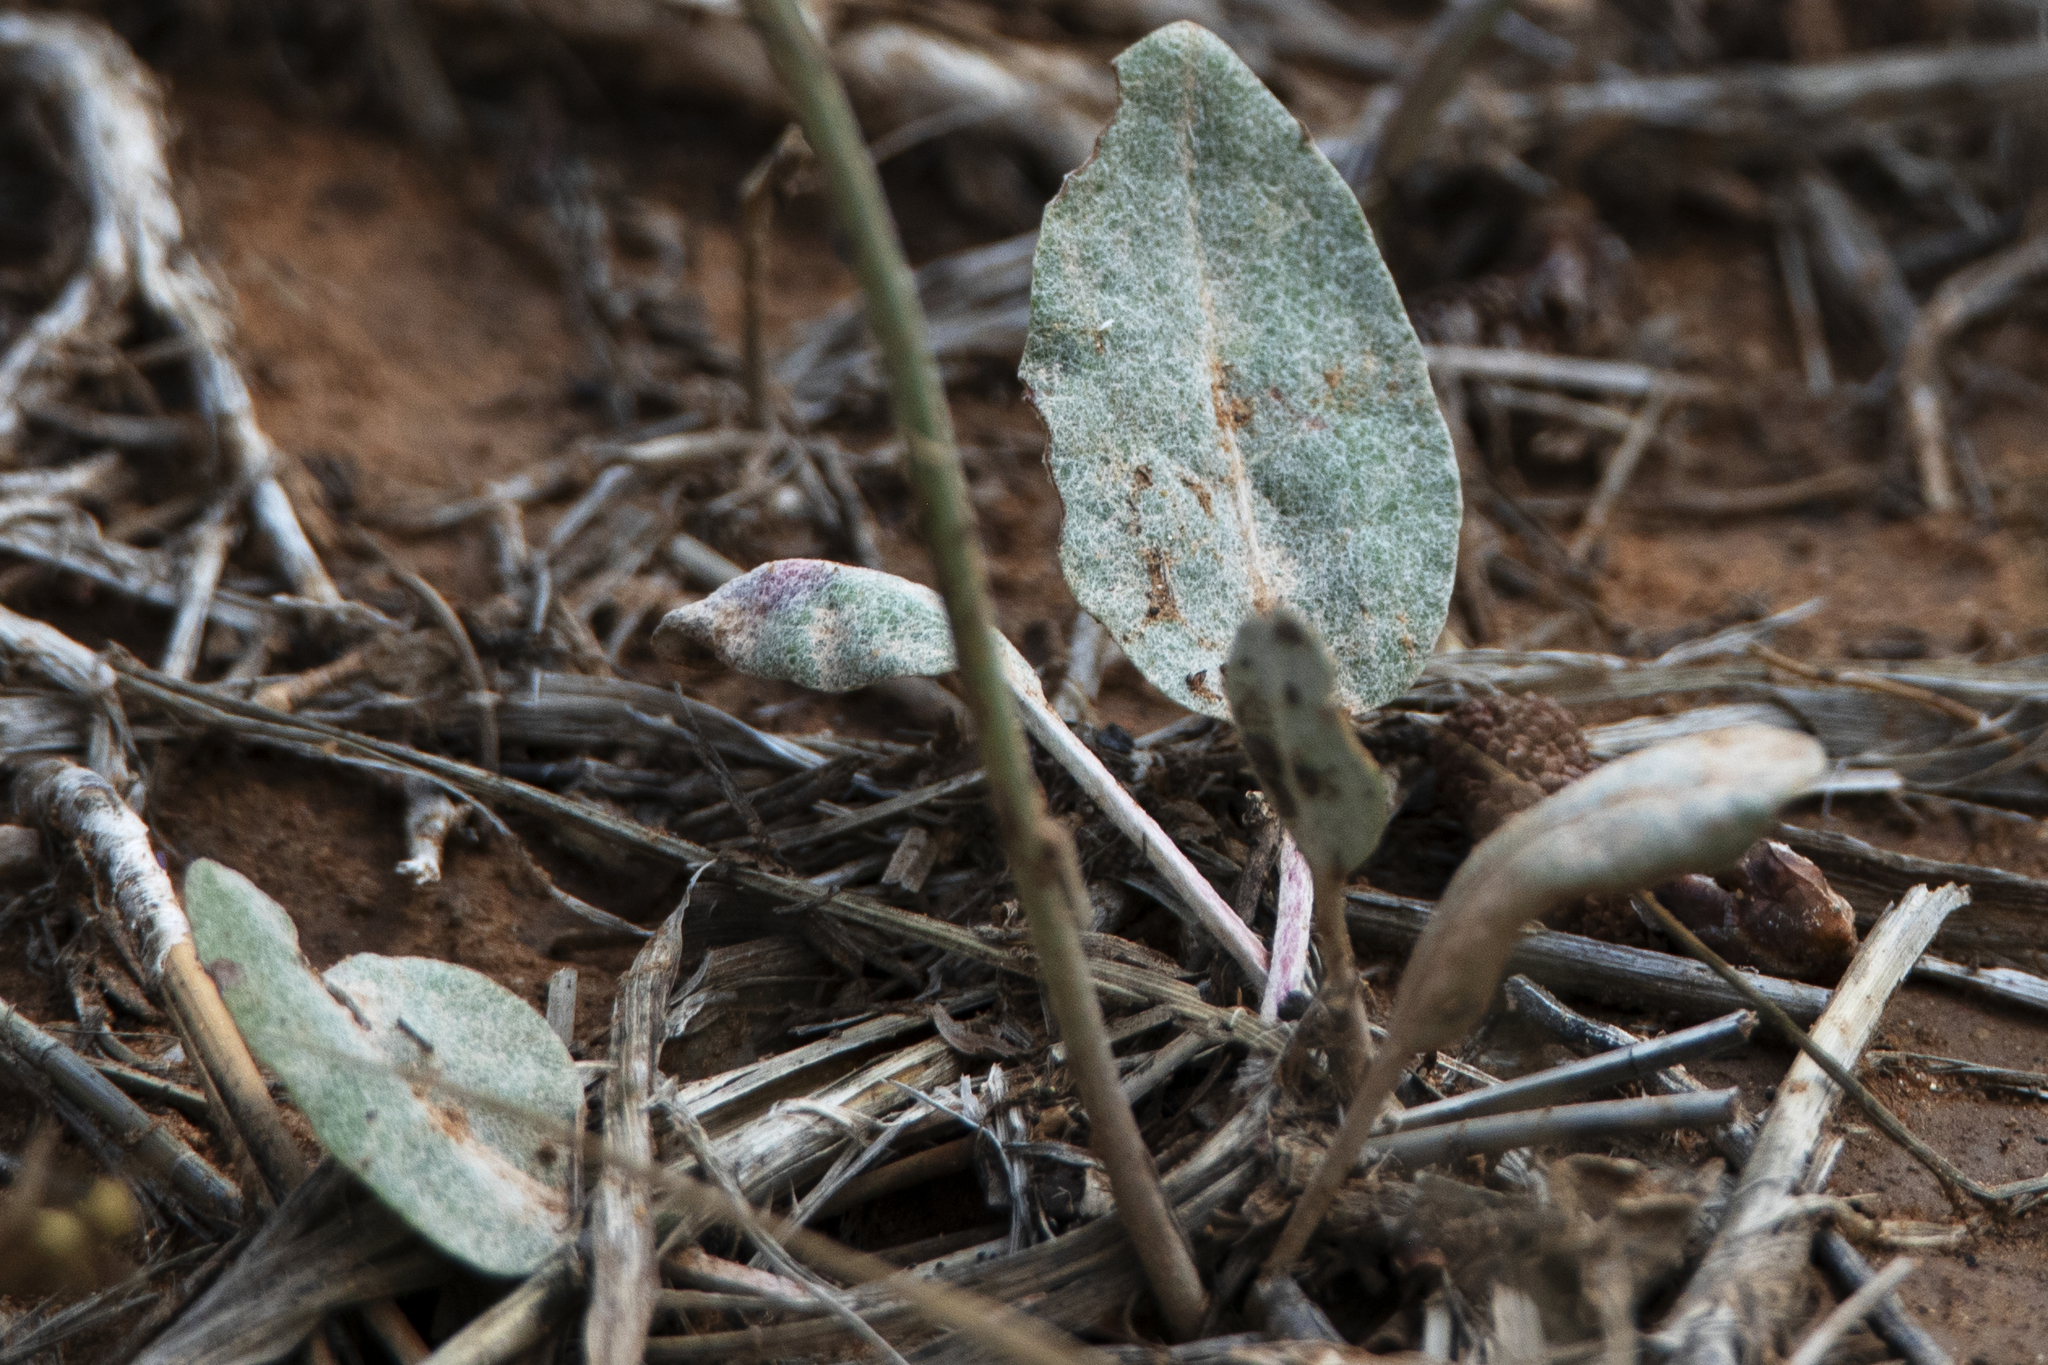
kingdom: Plantae
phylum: Tracheophyta
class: Magnoliopsida
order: Caryophyllales
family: Polygonaceae
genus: Eriogonum
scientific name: Eriogonum racemosum
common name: Redroot wild buckwheat
